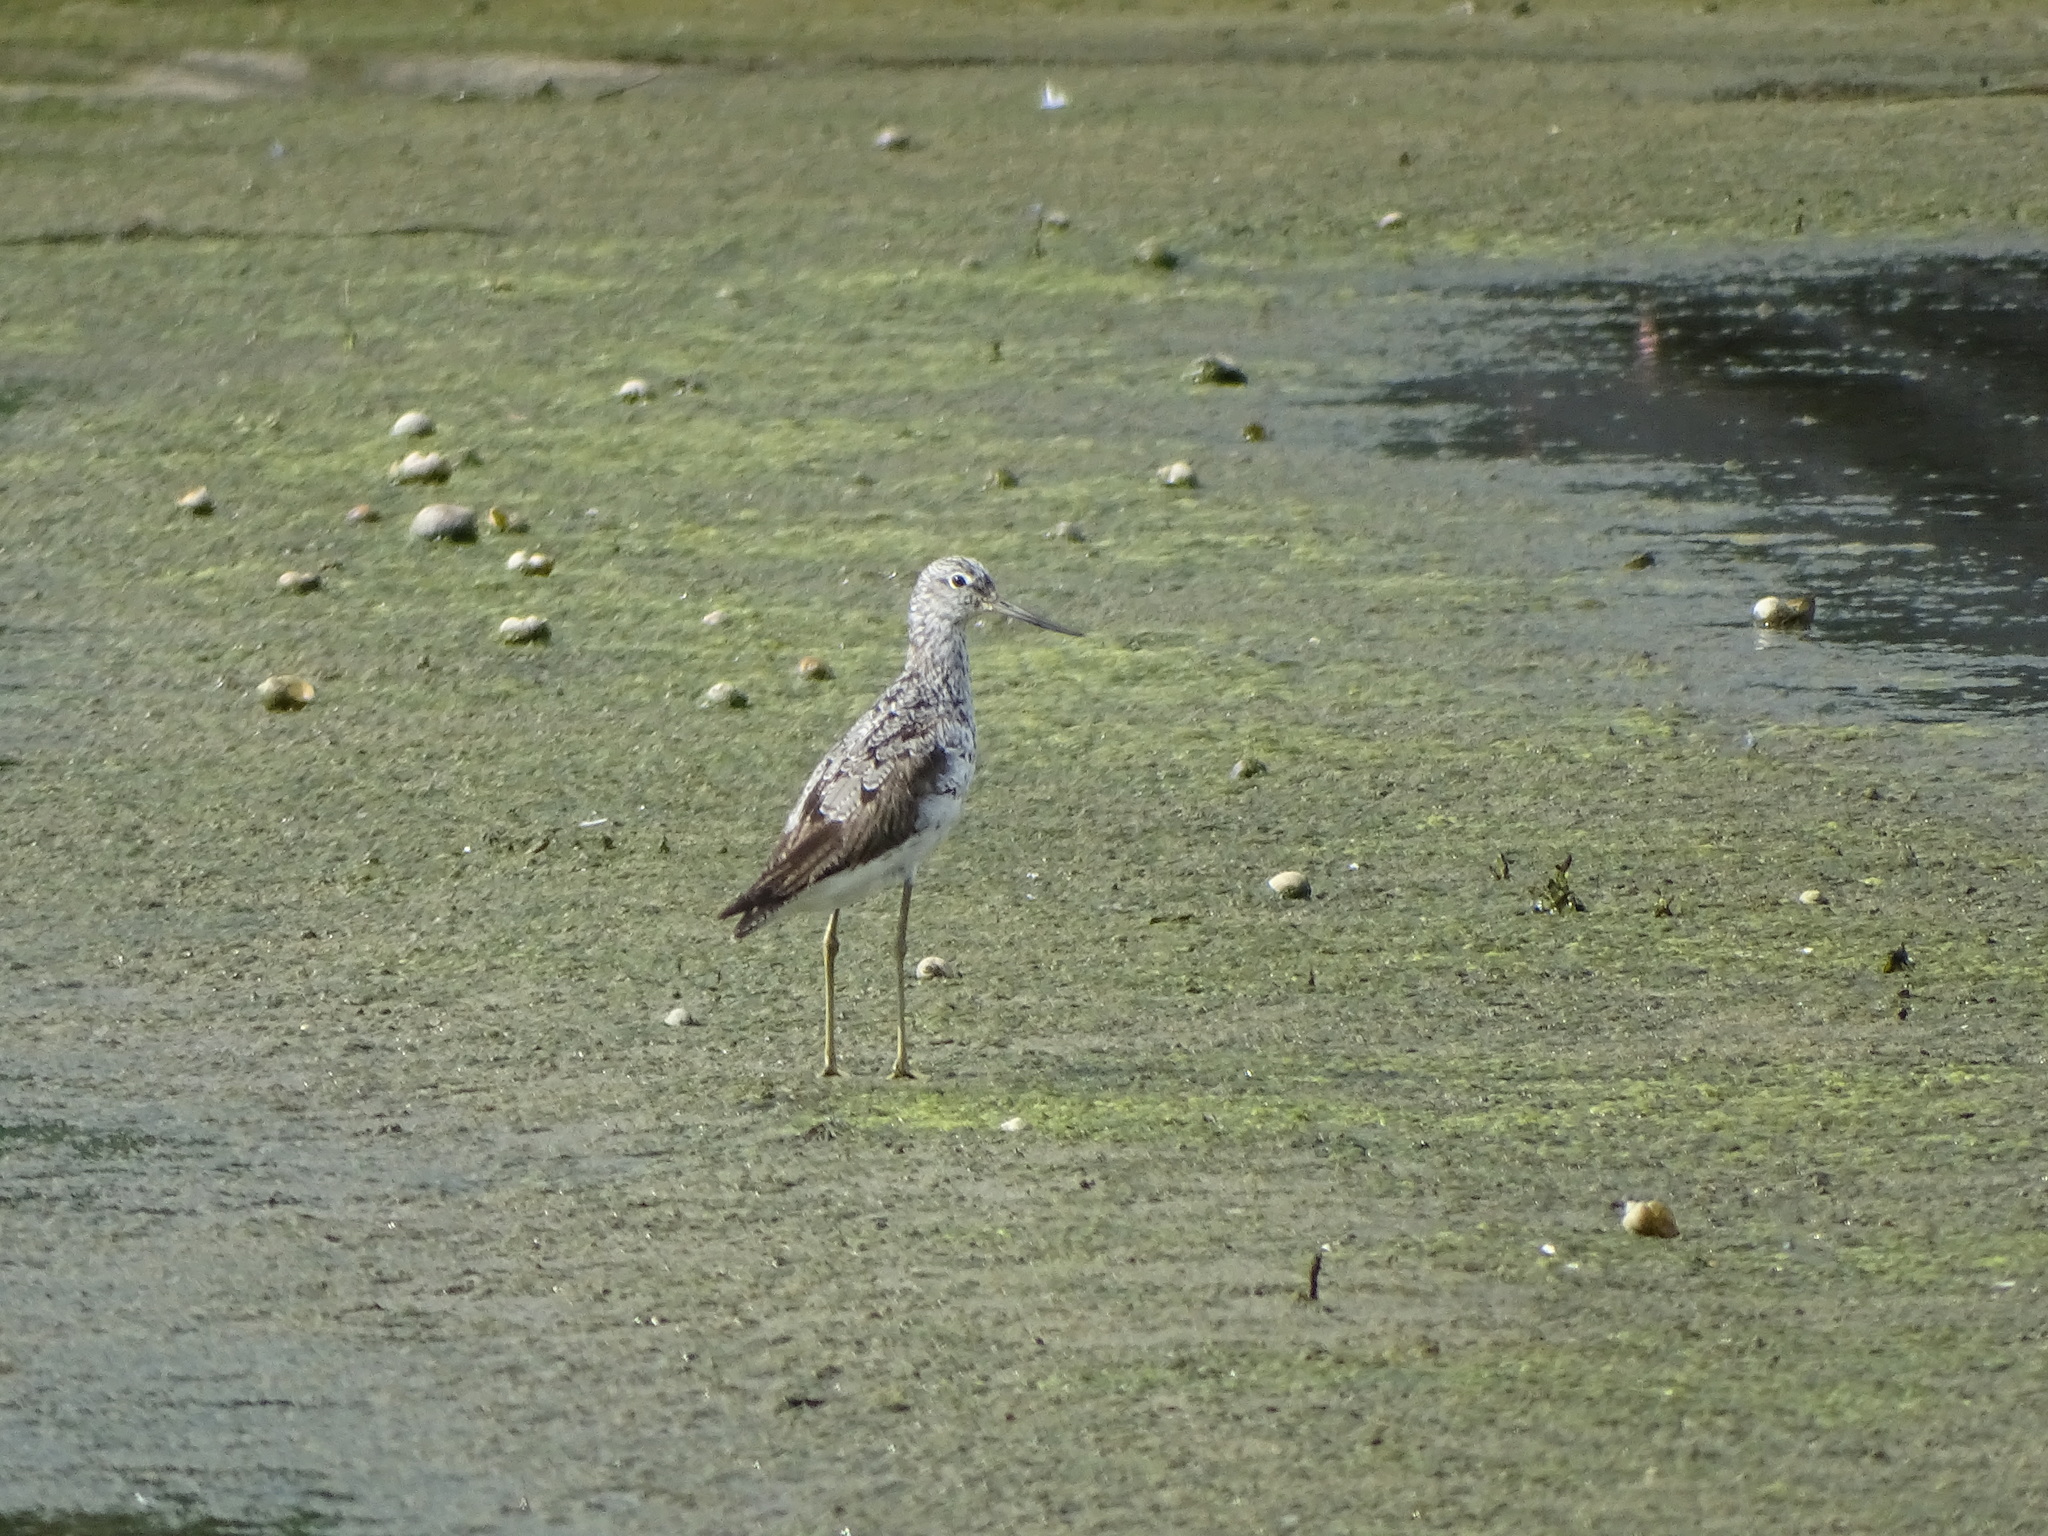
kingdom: Animalia
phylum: Chordata
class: Aves
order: Charadriiformes
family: Scolopacidae
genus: Tringa
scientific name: Tringa nebularia
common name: Common greenshank
